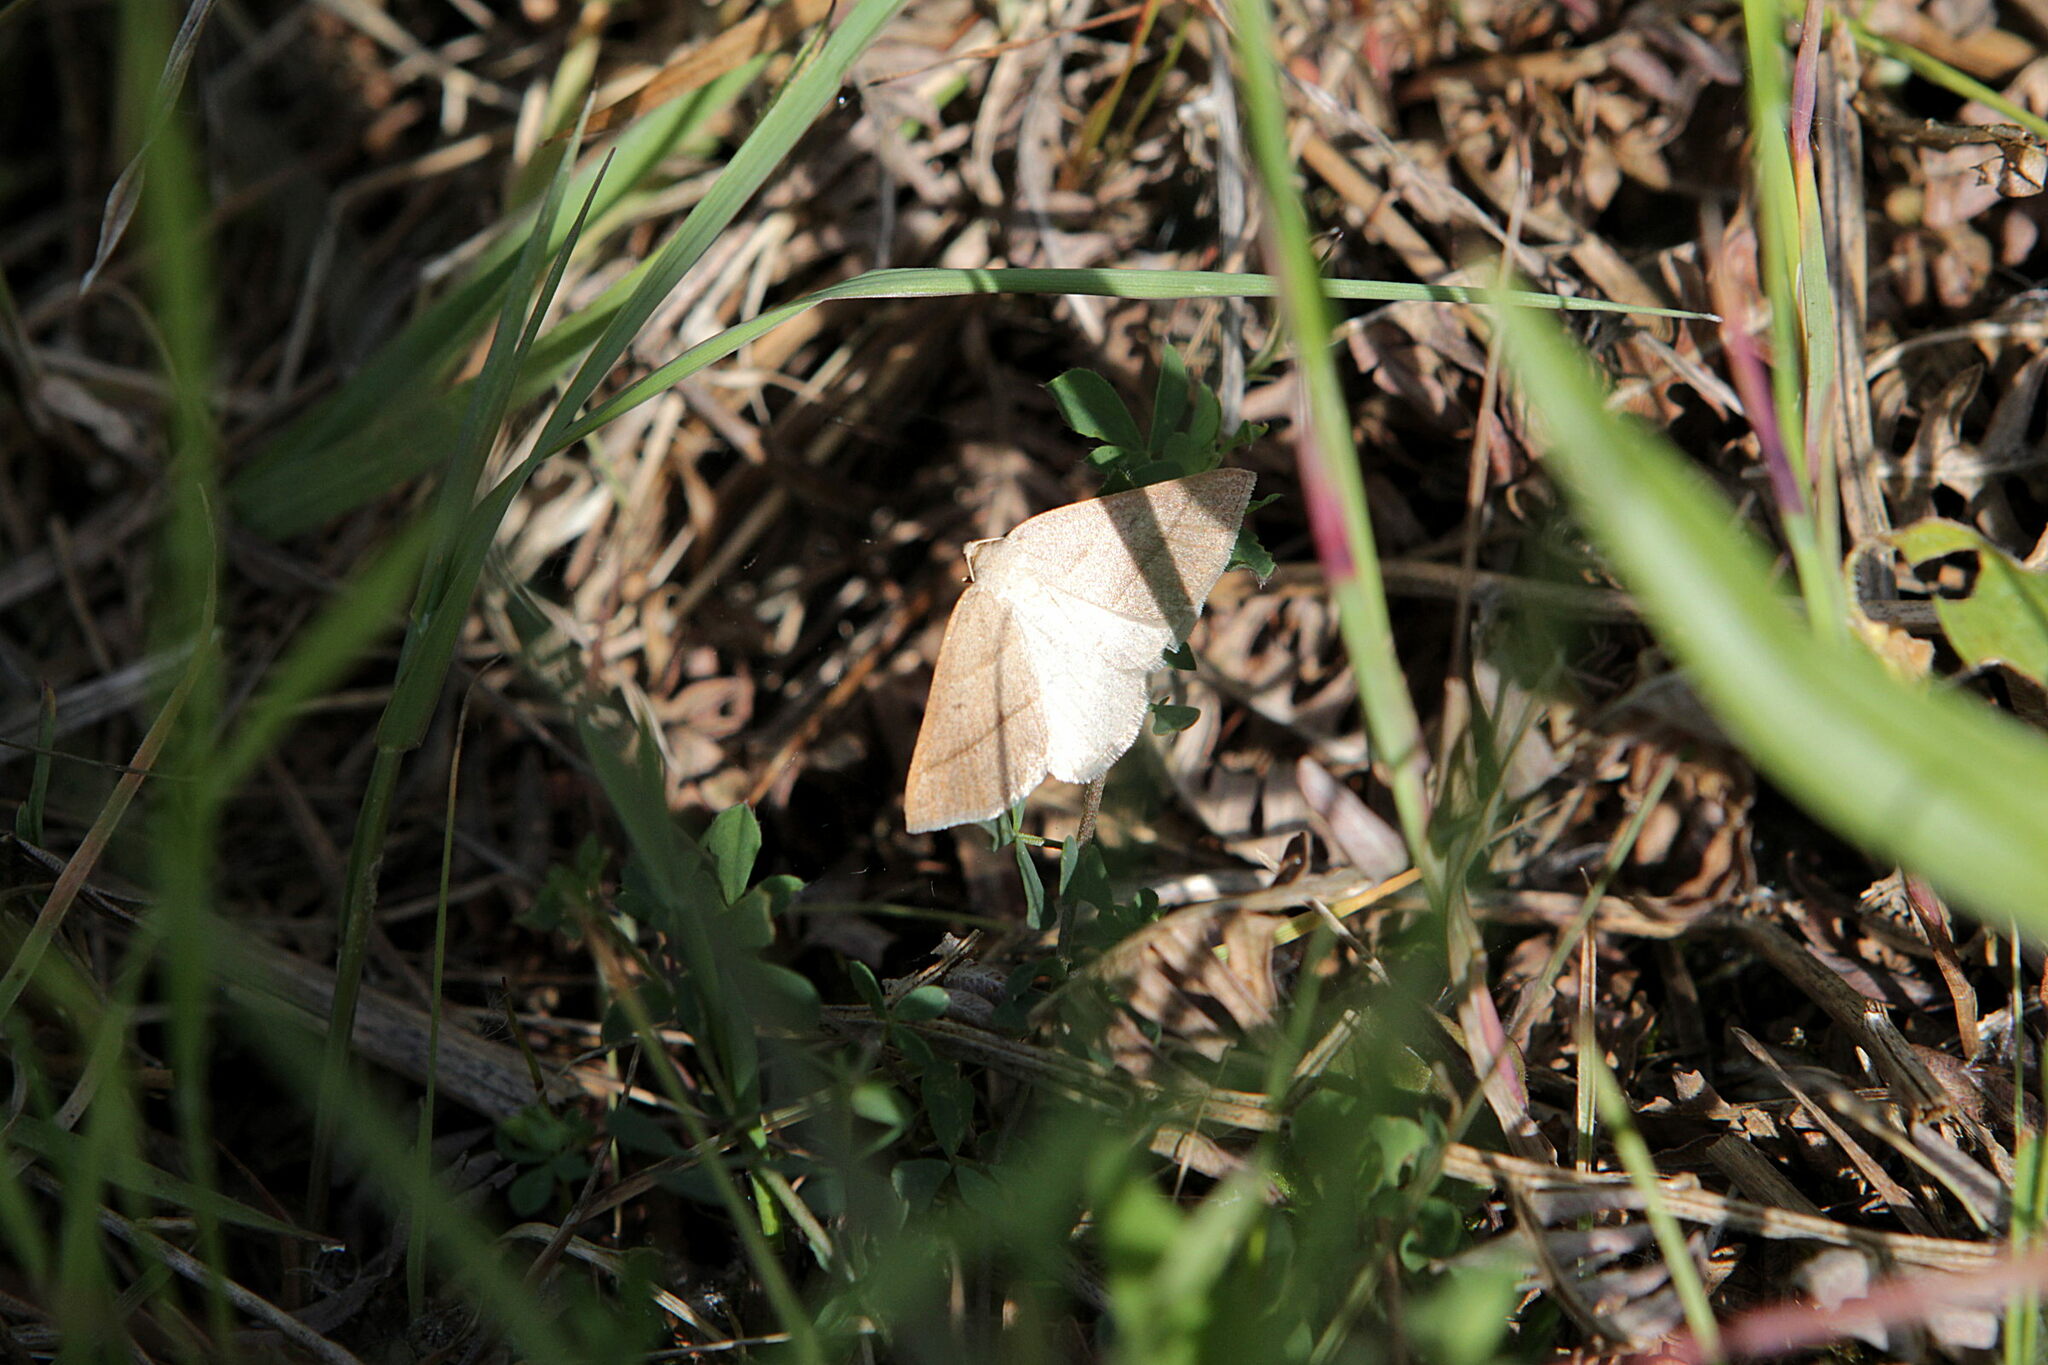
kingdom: Animalia
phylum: Arthropoda
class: Insecta
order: Lepidoptera
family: Pterophoridae
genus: Pterophorus
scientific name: Pterophorus Petrophora chlorosata
